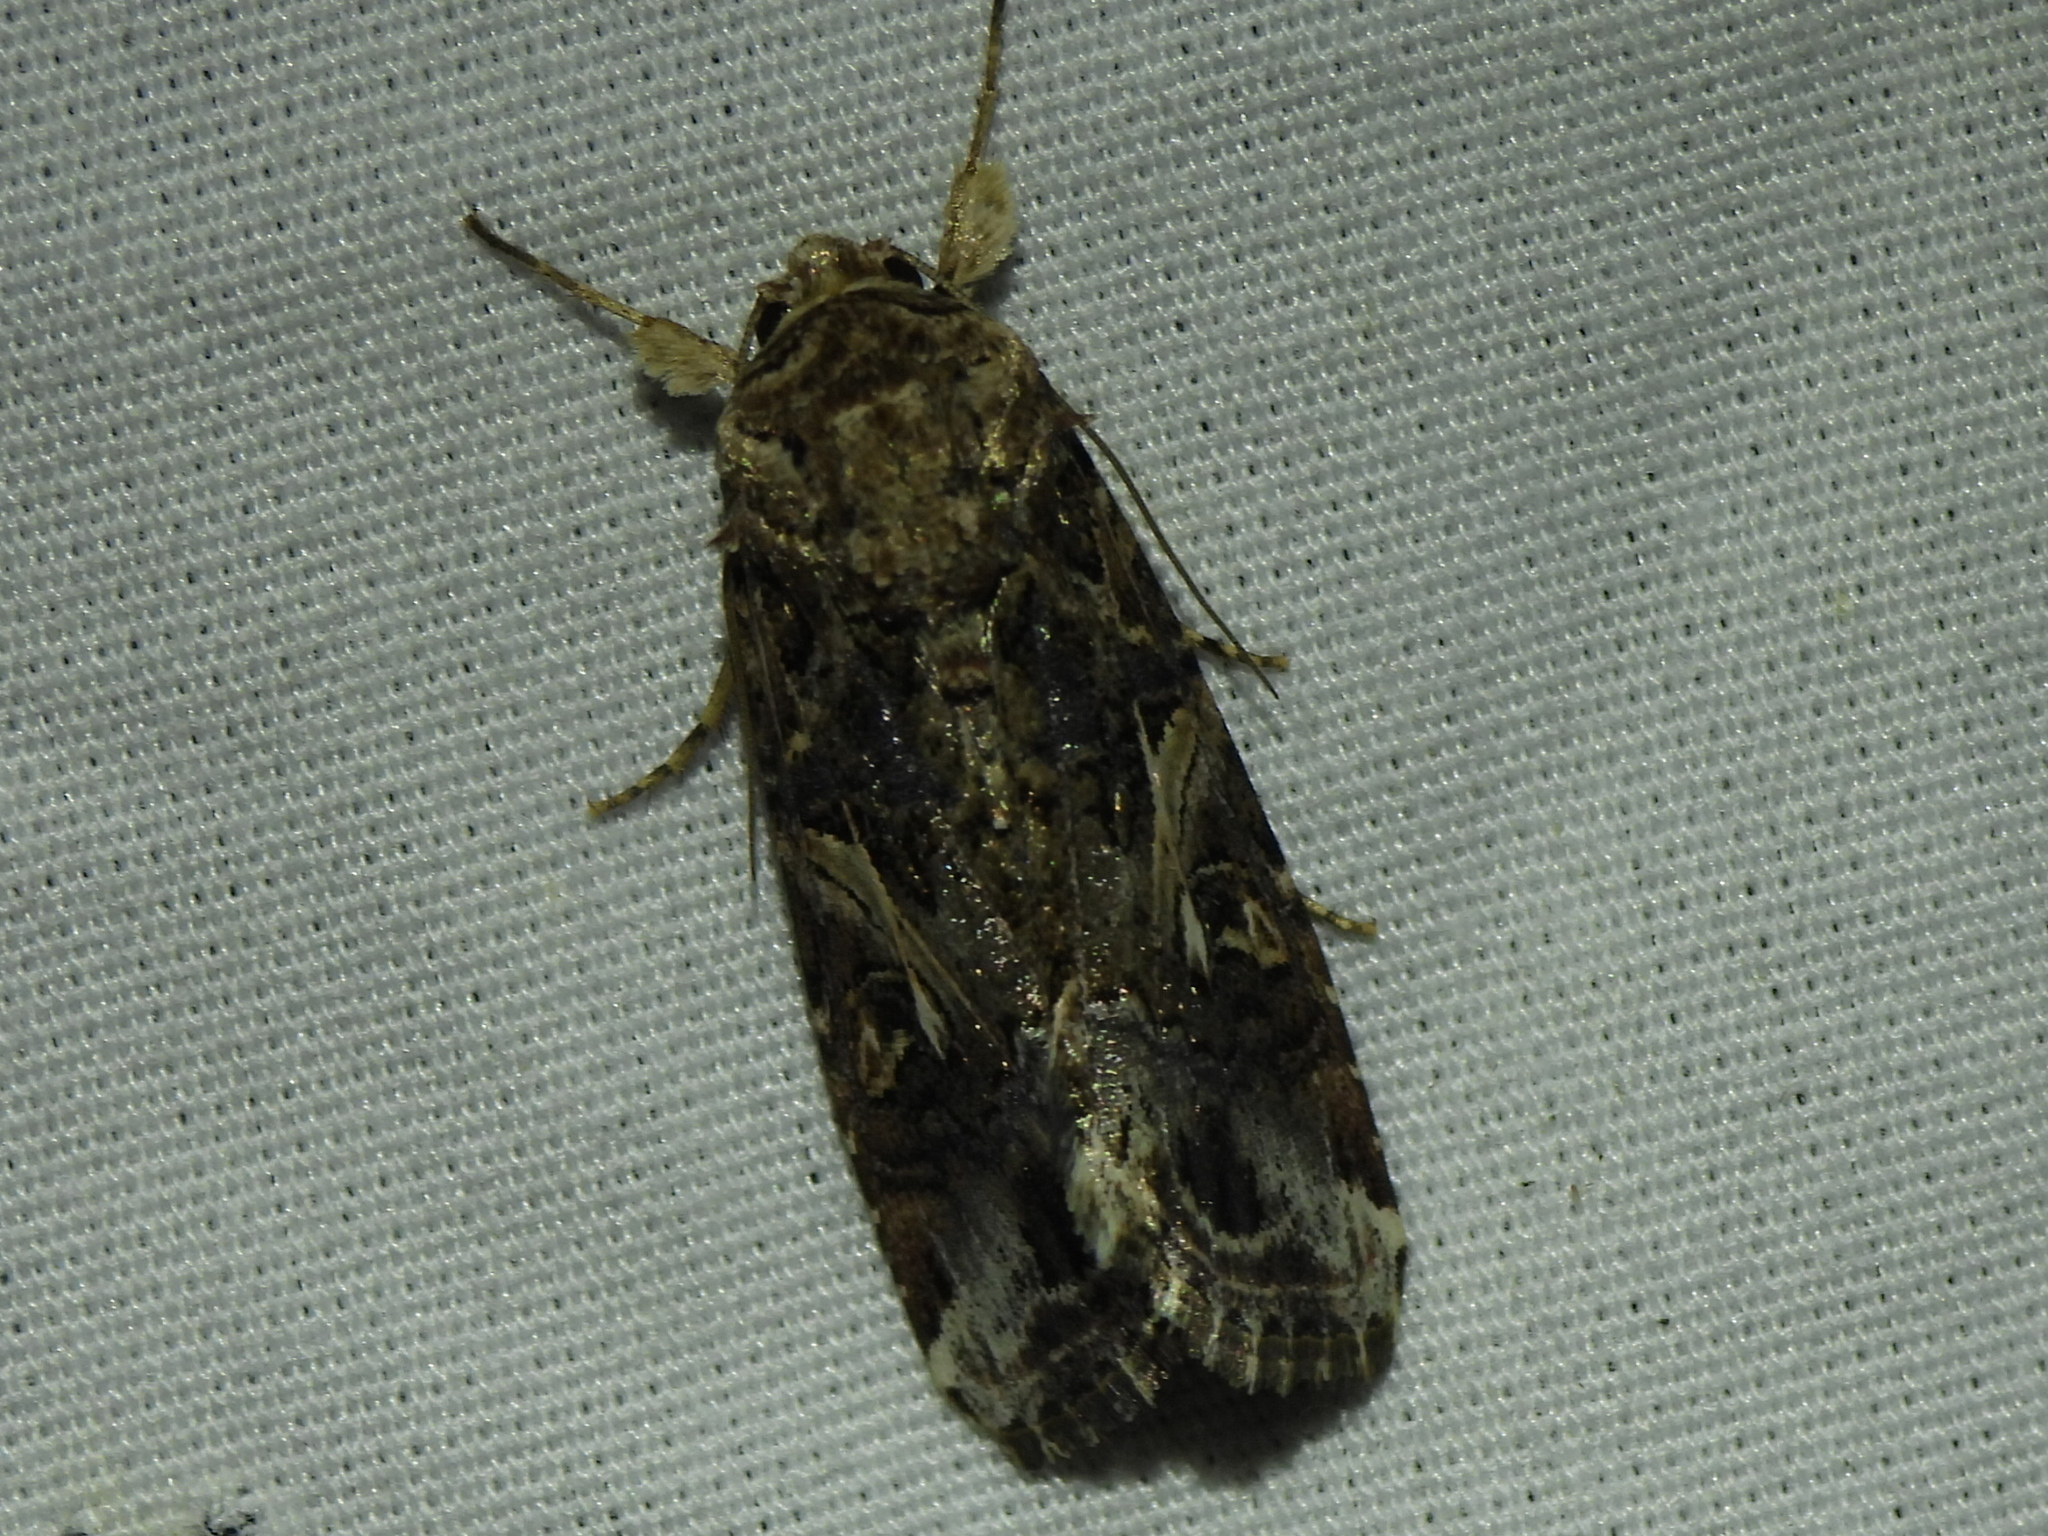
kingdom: Animalia
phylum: Arthropoda
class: Insecta
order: Lepidoptera
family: Noctuidae
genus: Spodoptera
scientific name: Spodoptera ornithogalli
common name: Yellow-striped armyworm
